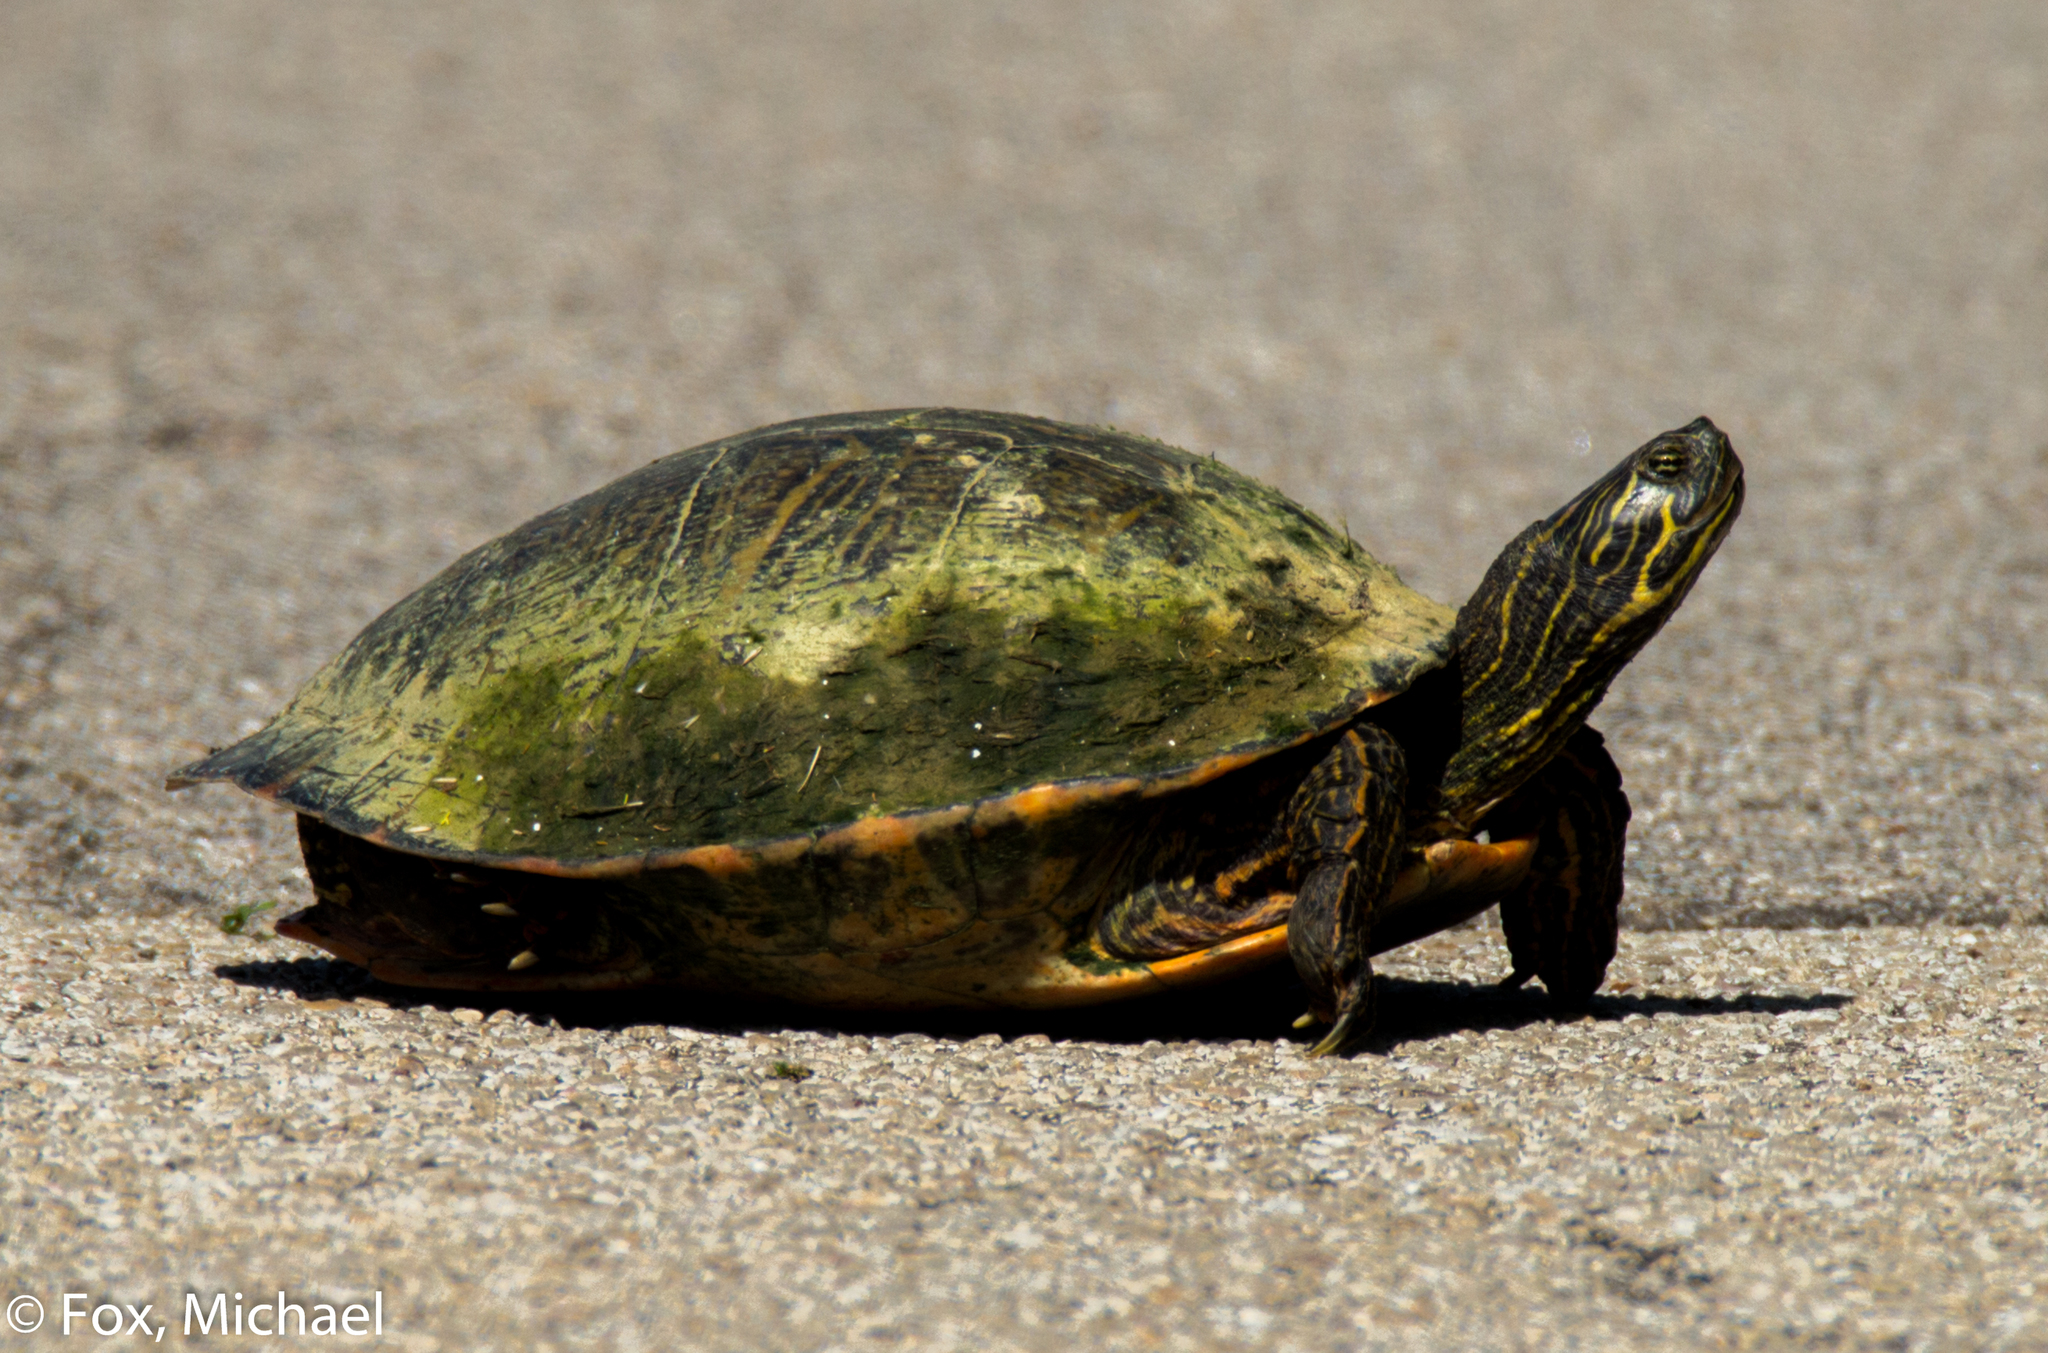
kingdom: Animalia
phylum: Chordata
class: Testudines
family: Emydidae
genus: Pseudemys
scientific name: Pseudemys concinna
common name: Eastern river cooter
